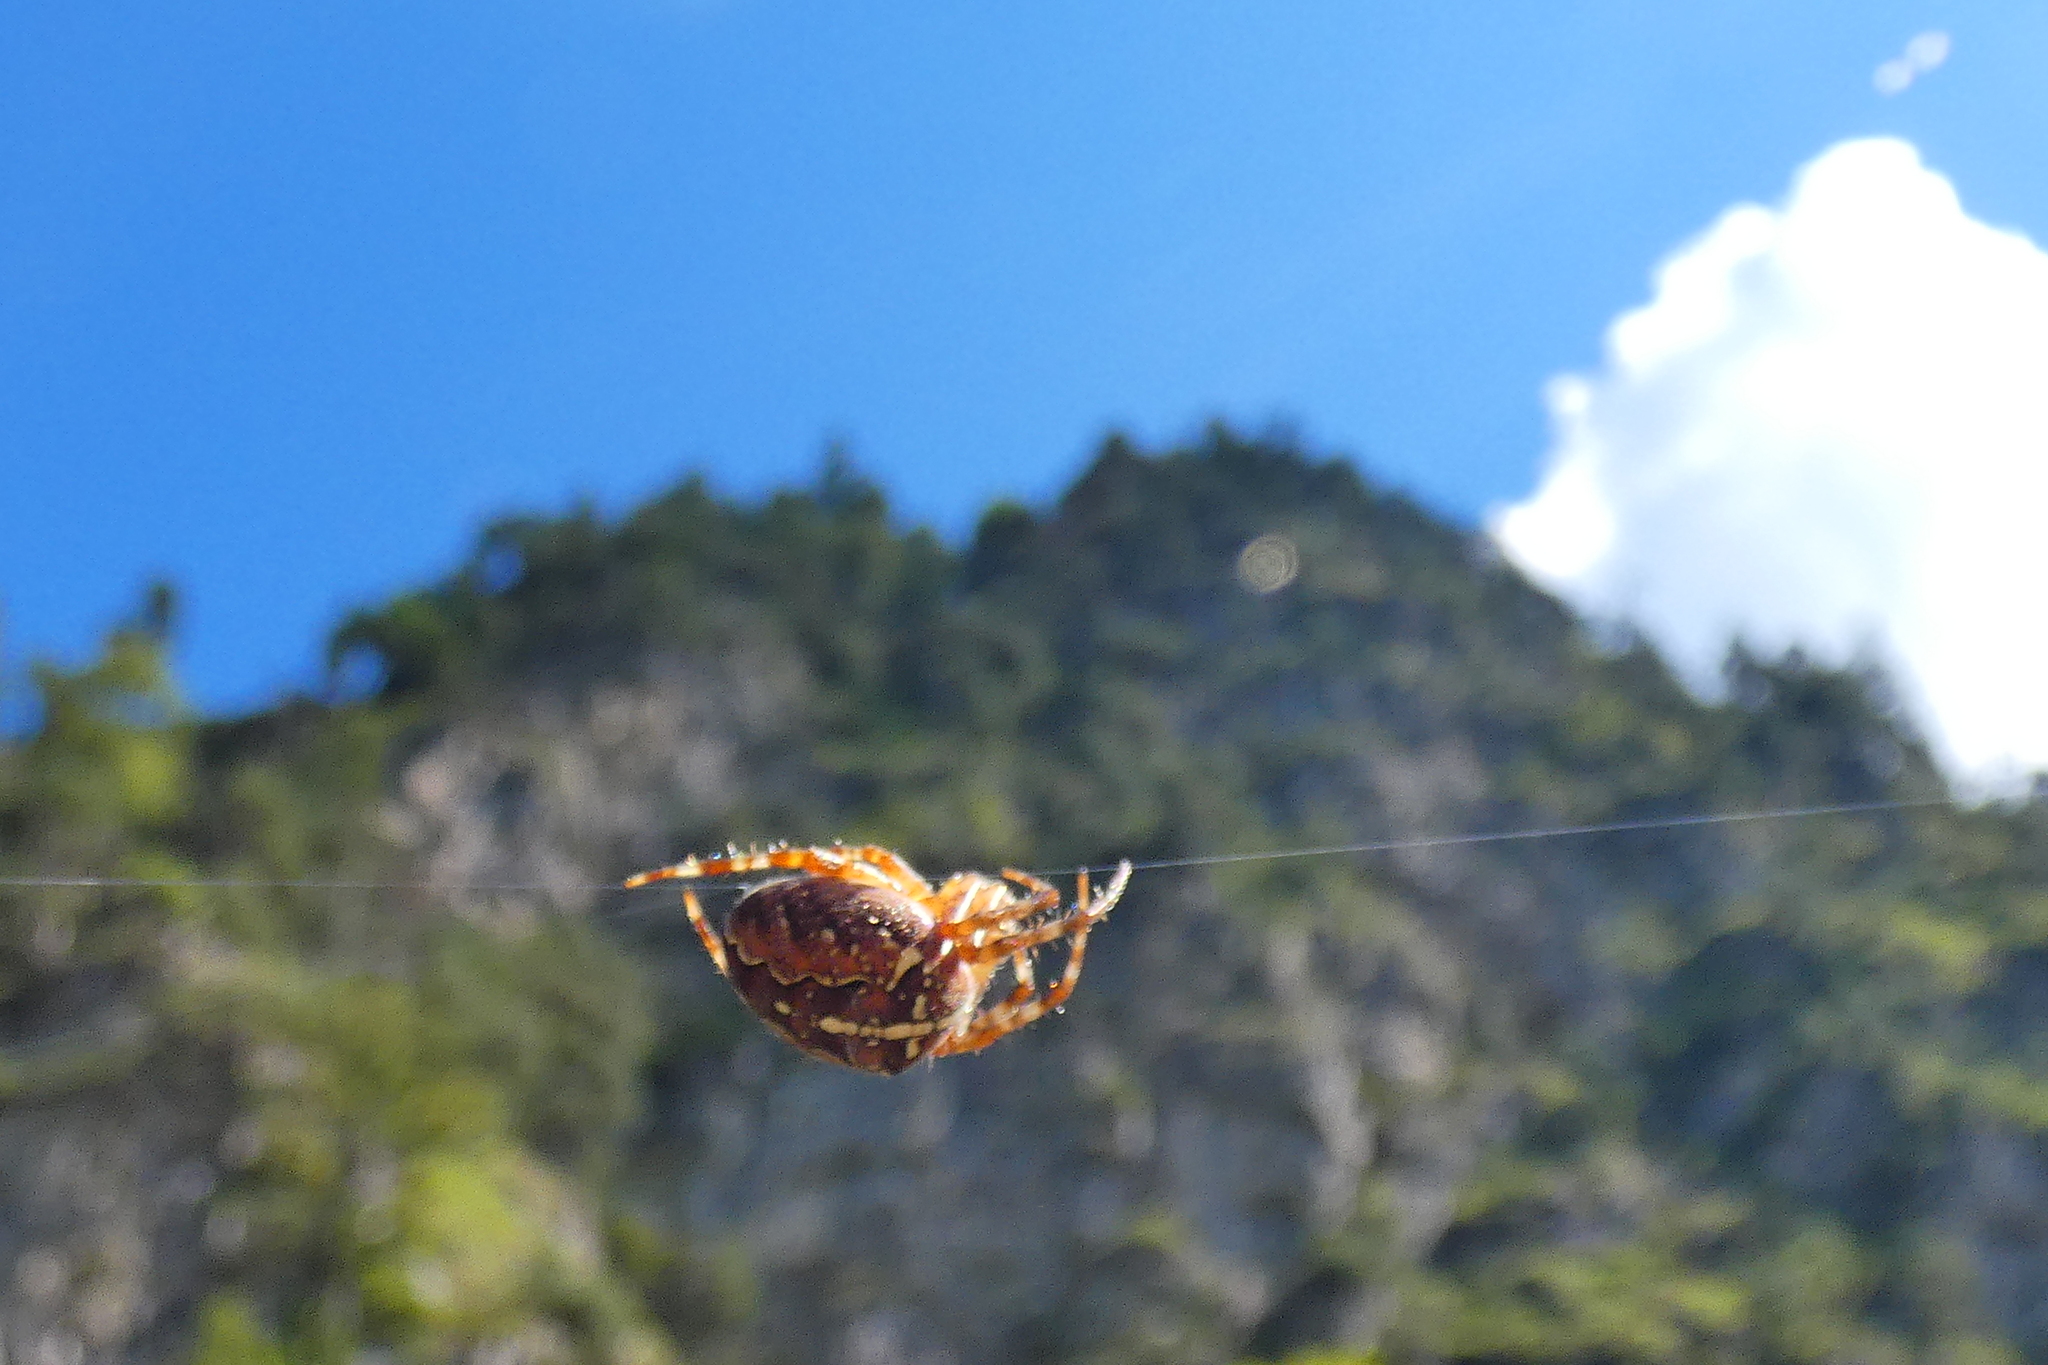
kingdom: Animalia
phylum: Arthropoda
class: Arachnida
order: Araneae
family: Araneidae
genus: Araneus
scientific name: Araneus diadematus
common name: Cross orbweaver
